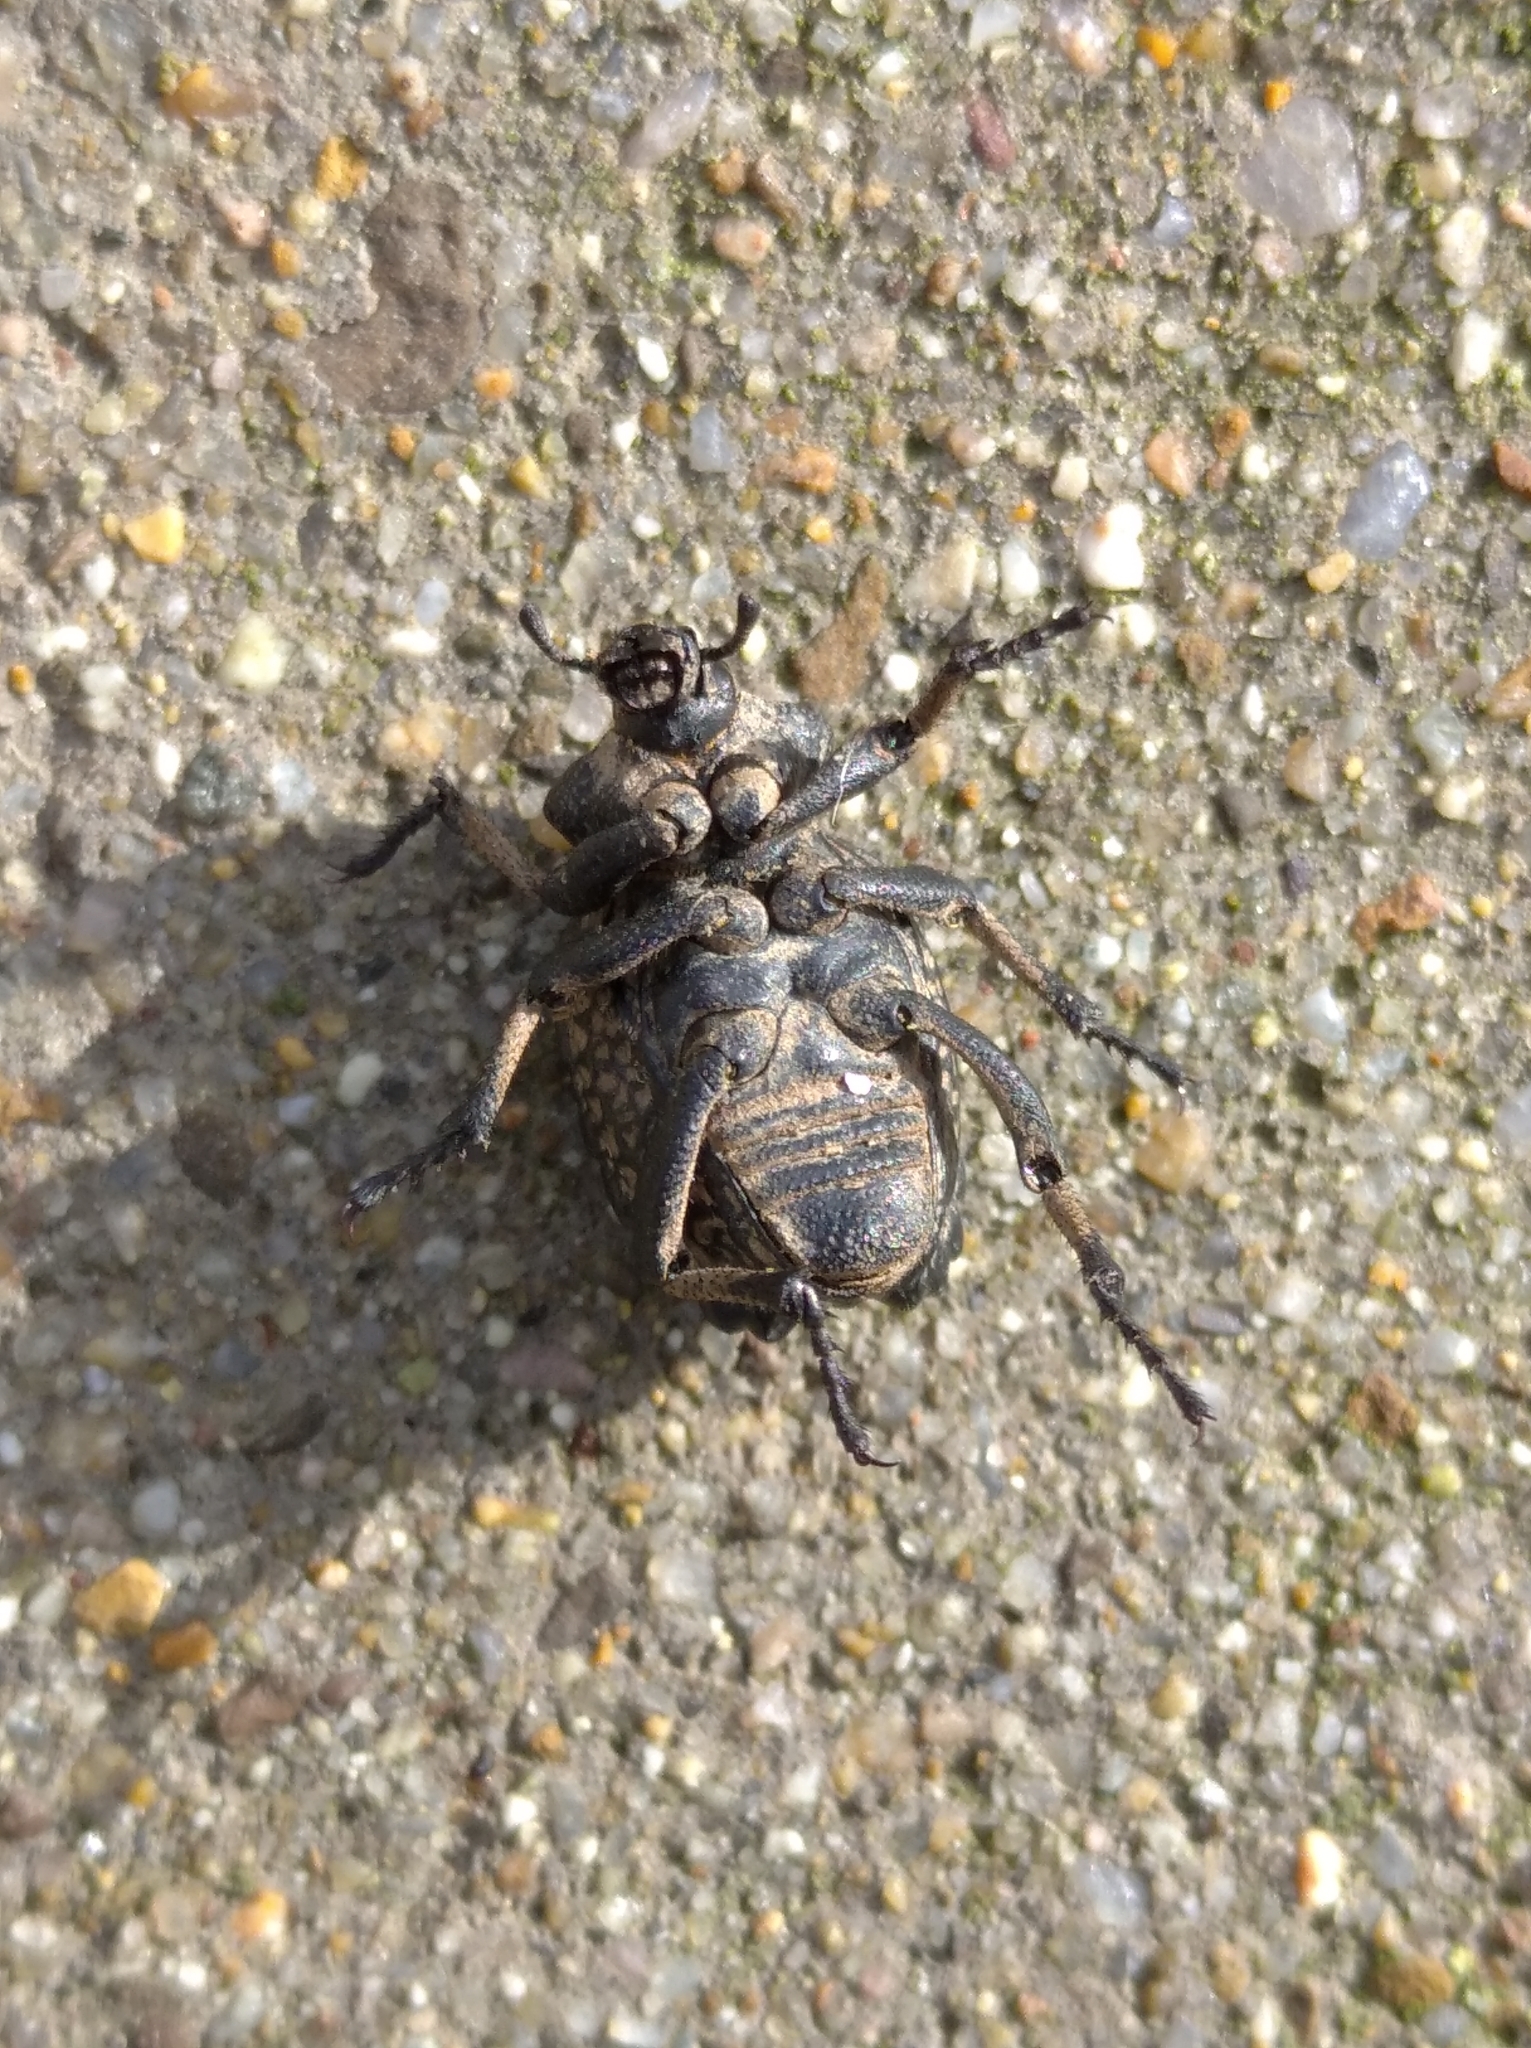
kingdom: Animalia
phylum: Arthropoda
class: Insecta
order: Coleoptera
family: Brachyceridae
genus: Brachycerus
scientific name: Brachycerus undatus
